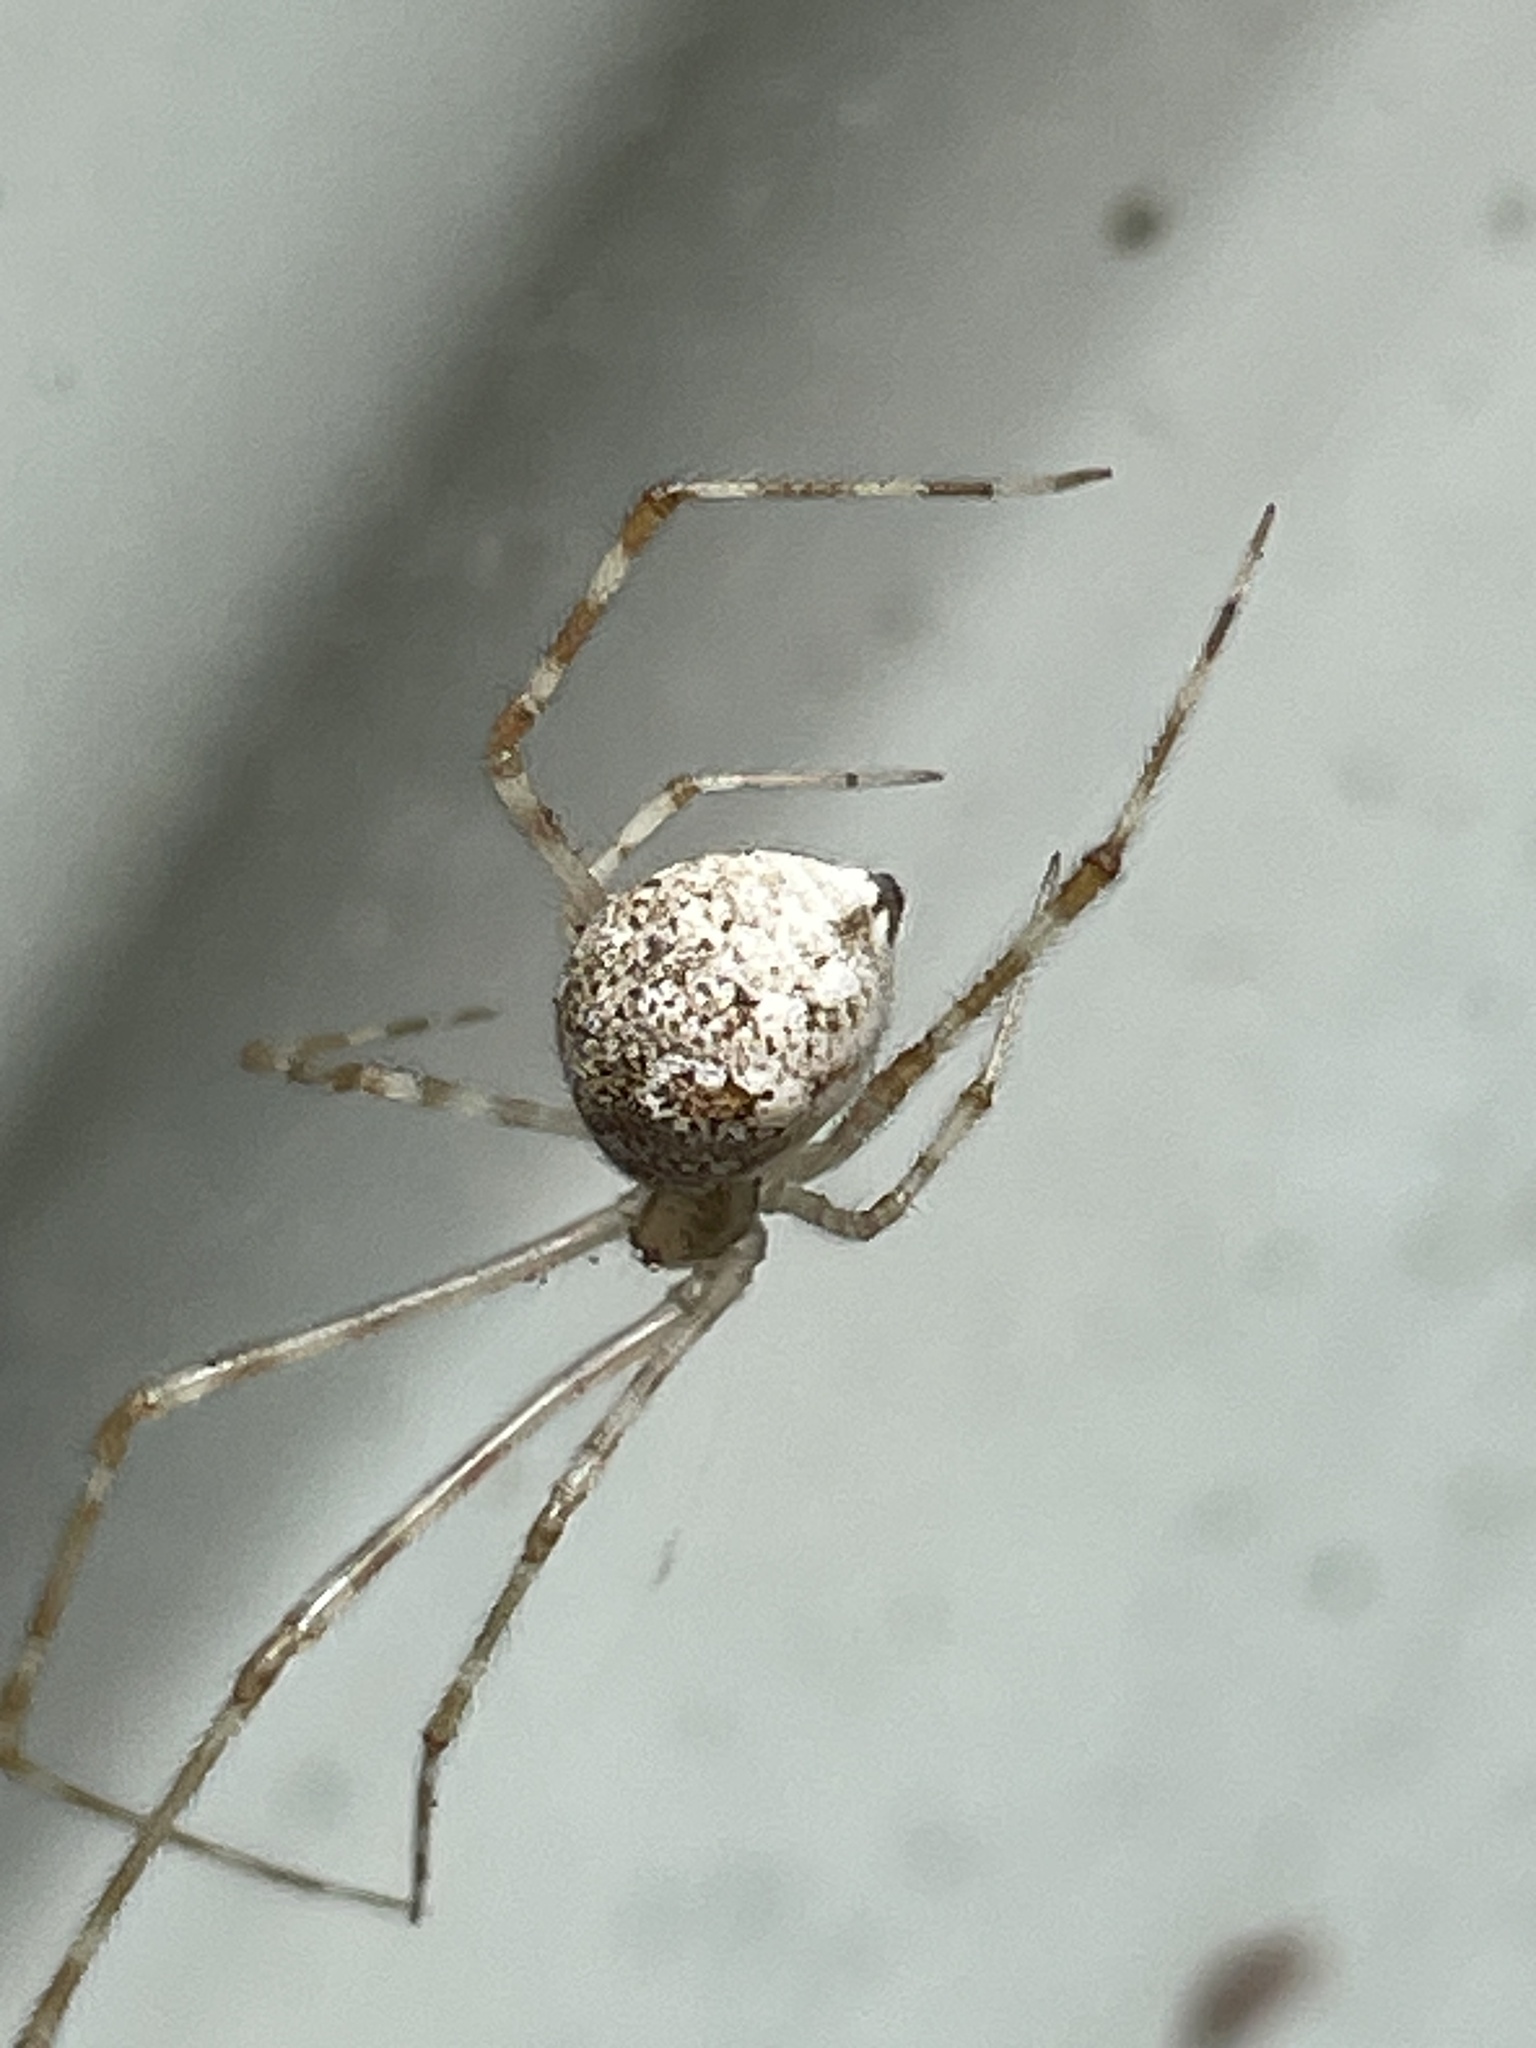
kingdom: Animalia
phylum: Arthropoda
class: Arachnida
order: Araneae
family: Theridiidae
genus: Cryptachaea
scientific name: Cryptachaea gigantipes
